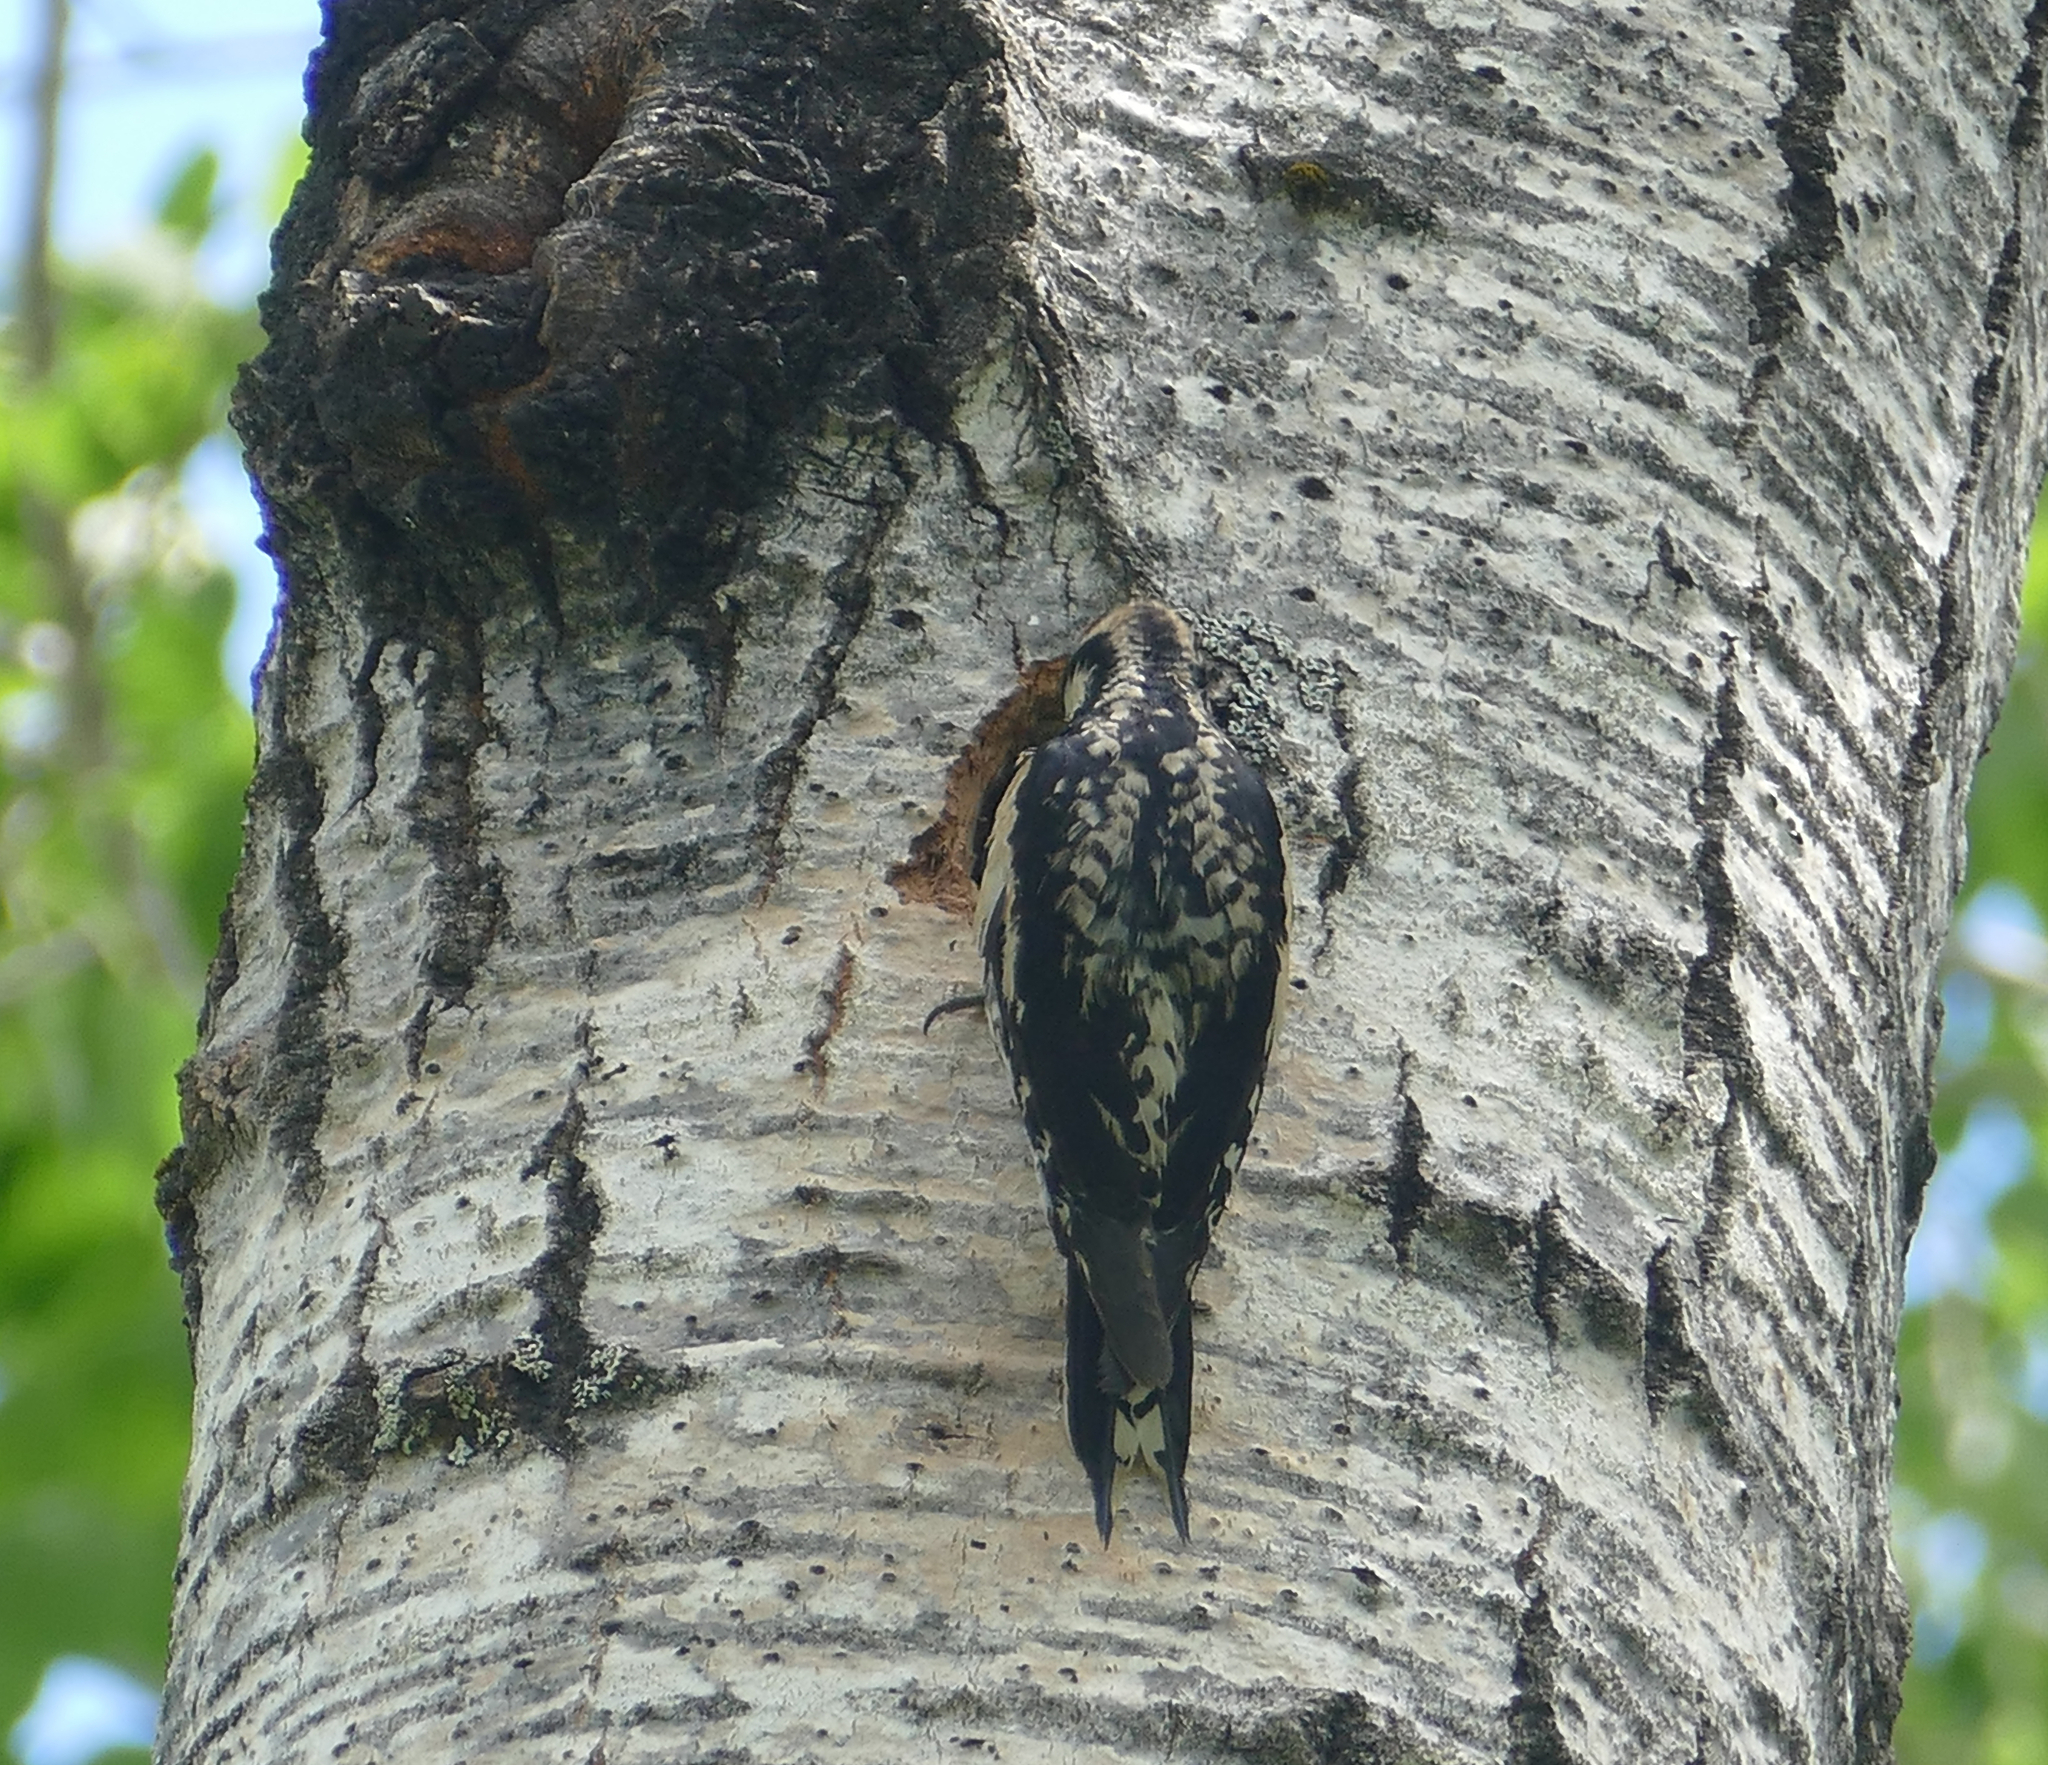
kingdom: Animalia
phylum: Chordata
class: Aves
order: Piciformes
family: Picidae
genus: Sphyrapicus
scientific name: Sphyrapicus varius
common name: Yellow-bellied sapsucker
